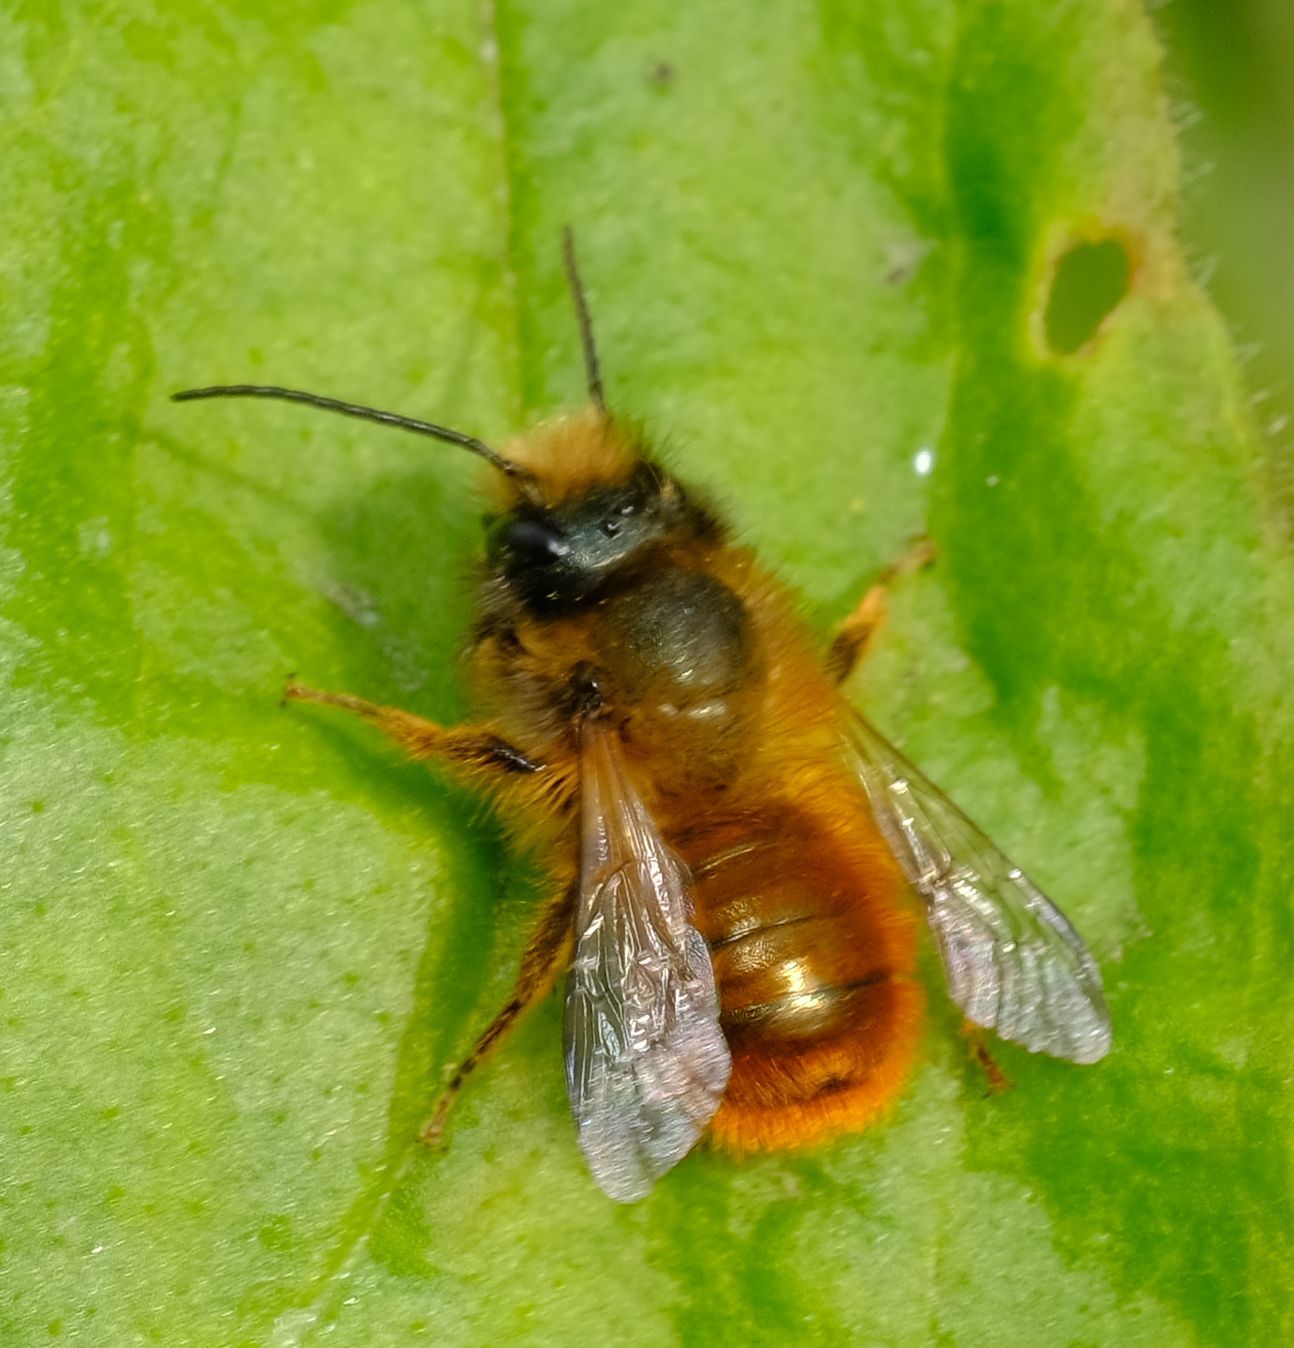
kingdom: Animalia
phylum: Arthropoda
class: Insecta
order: Hymenoptera
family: Megachilidae
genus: Osmia
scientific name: Osmia bicornis
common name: Red mason bee
